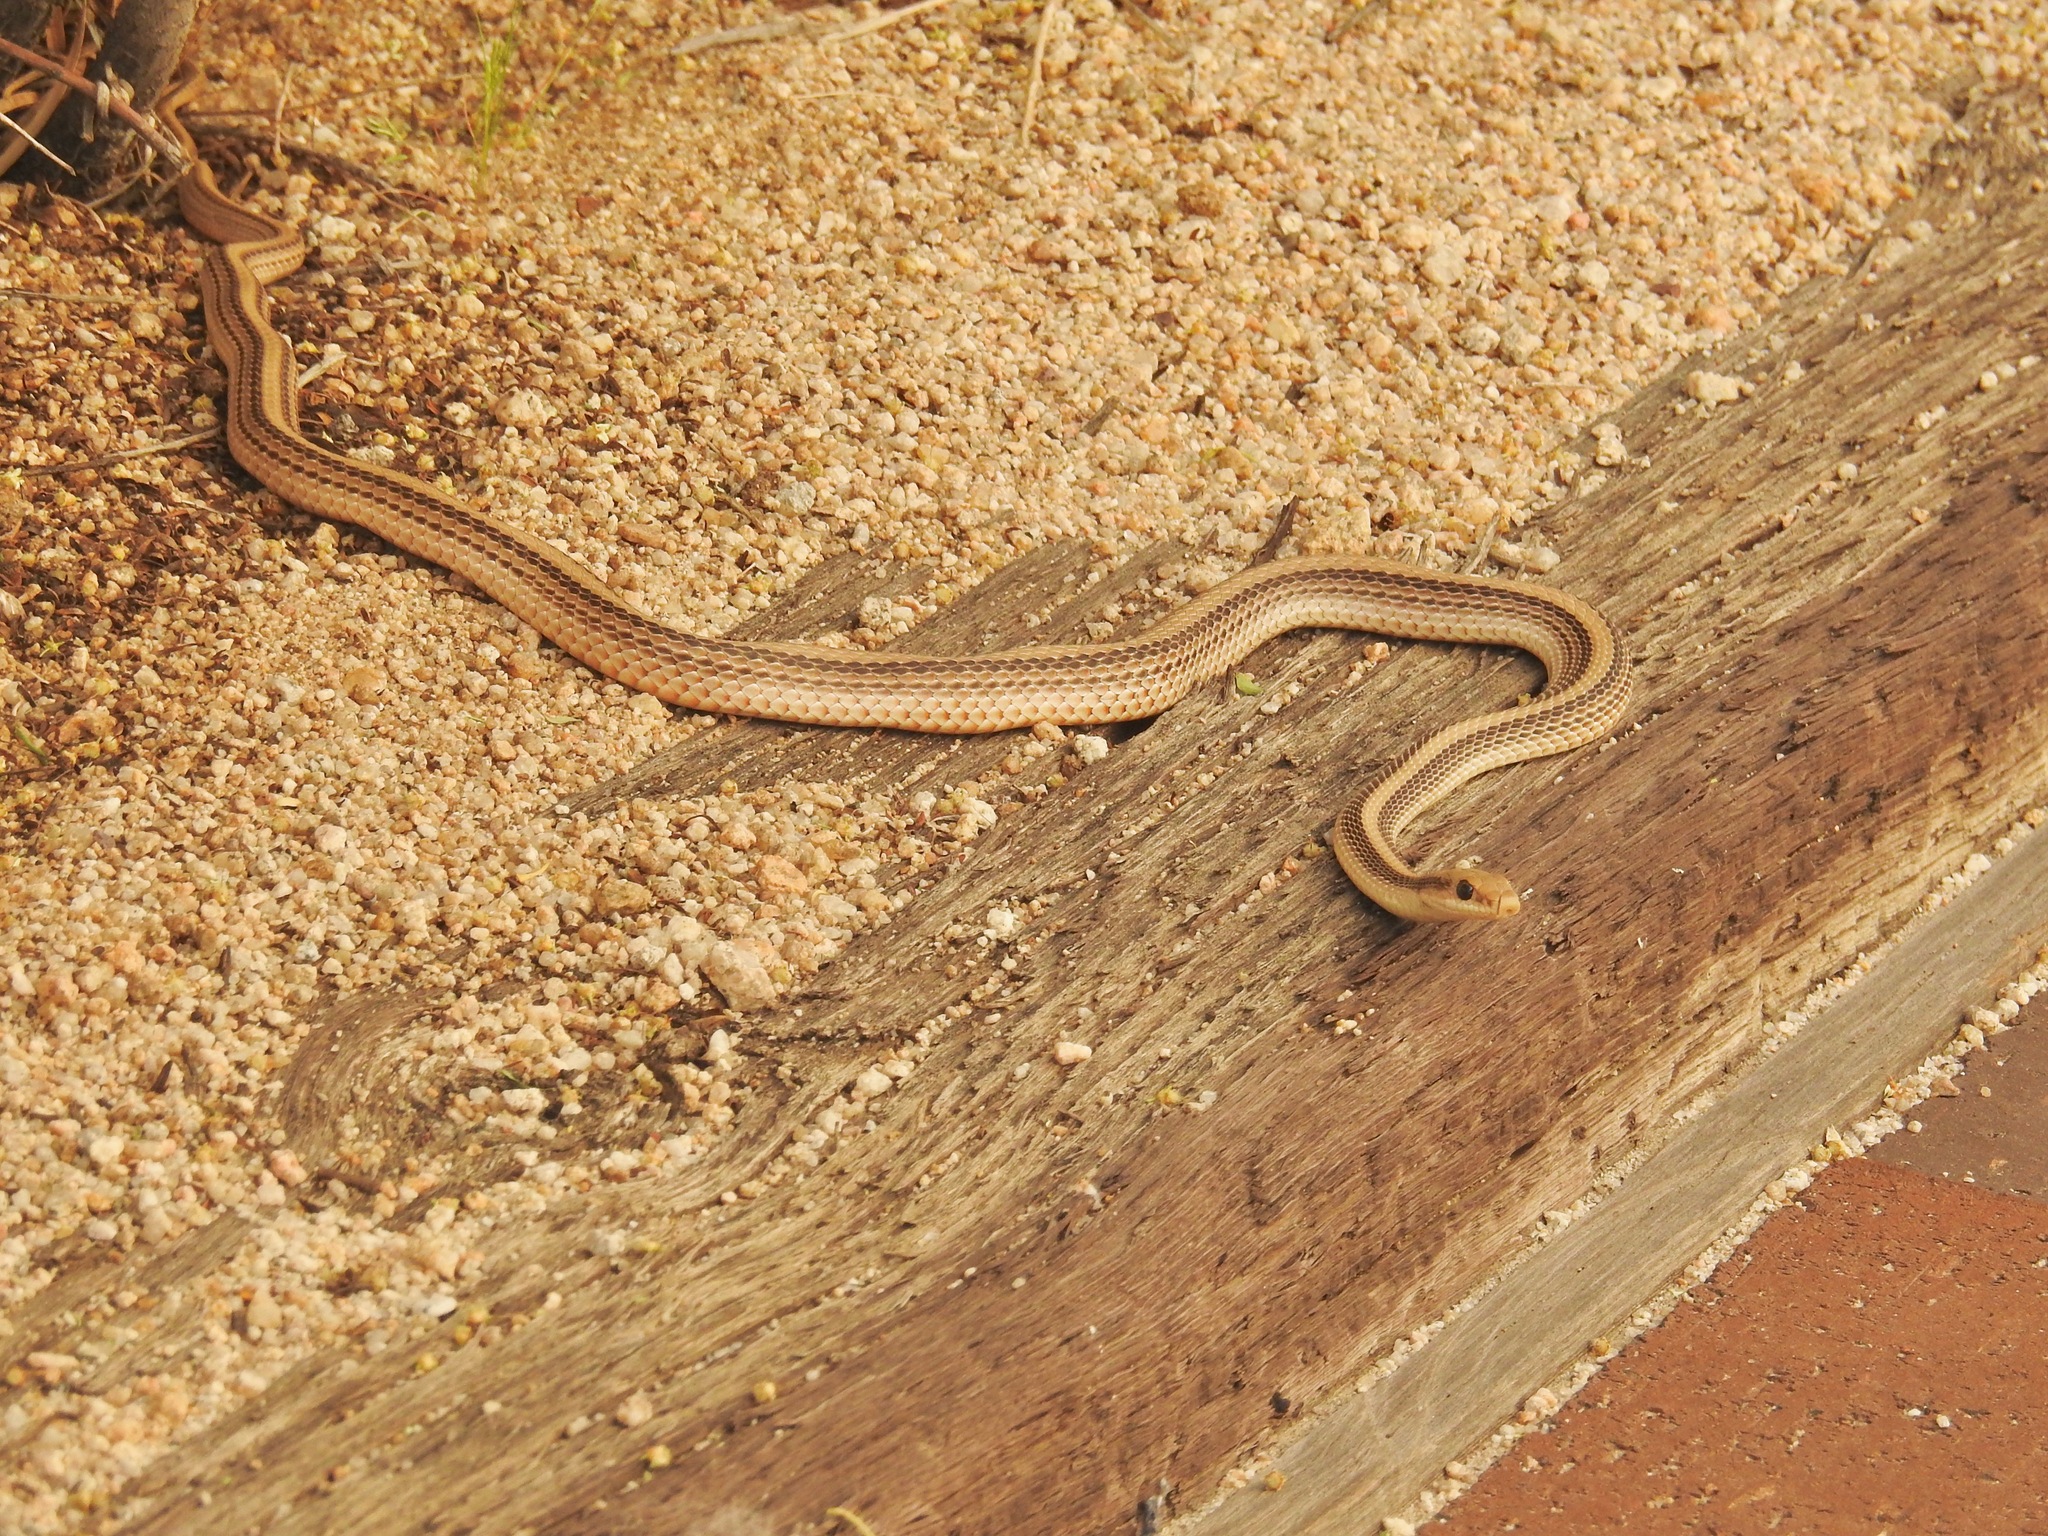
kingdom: Animalia
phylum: Chordata
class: Squamata
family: Colubridae
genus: Salvadora
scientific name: Salvadora hexalepis
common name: Western patchnose snake
